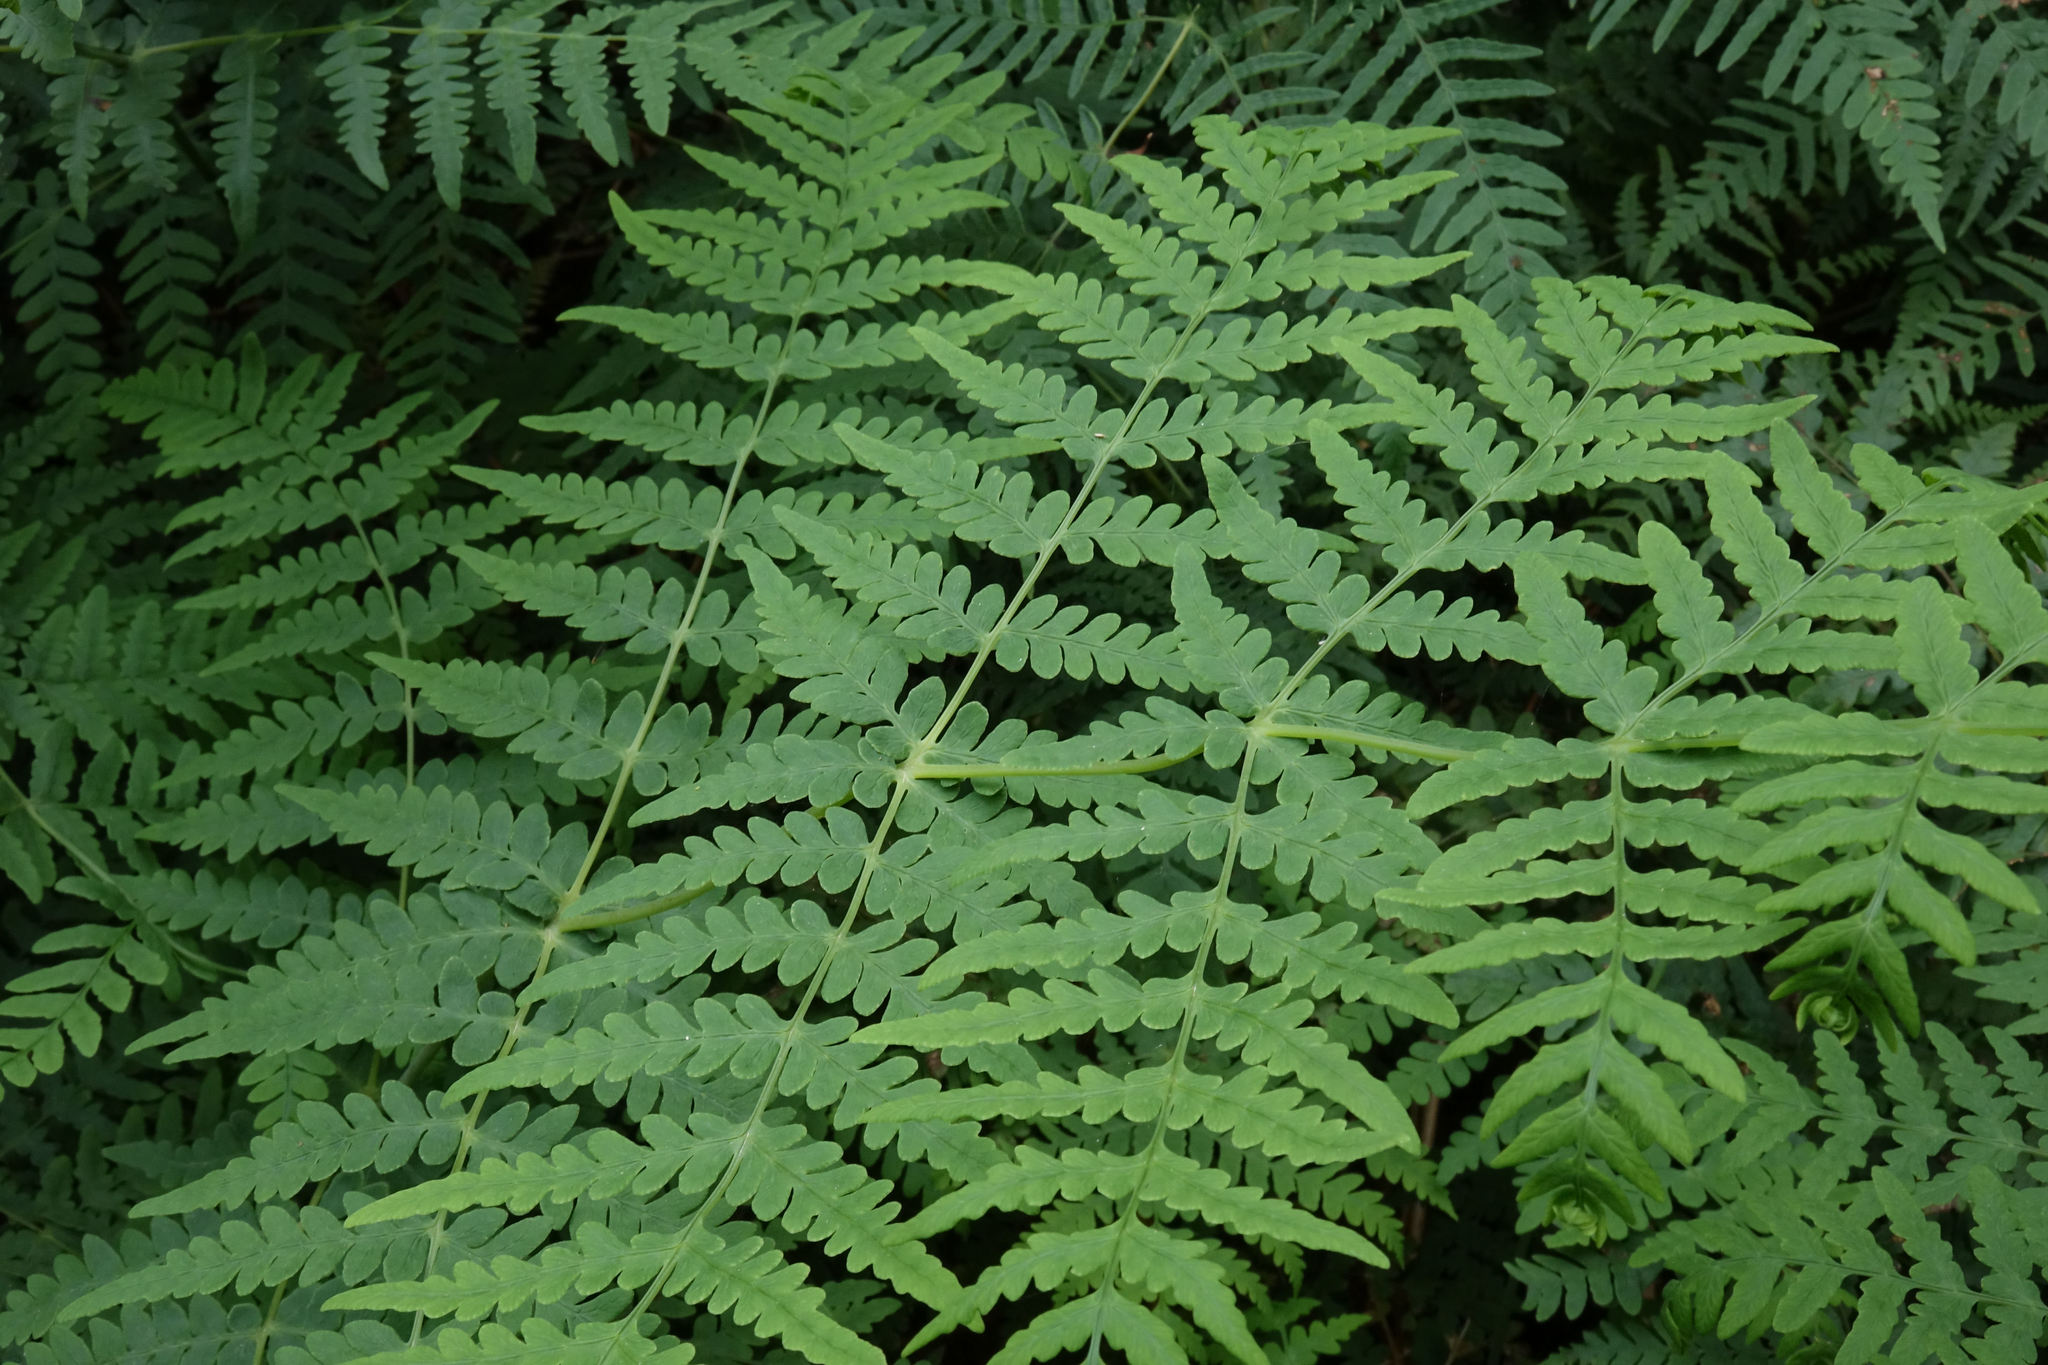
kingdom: Plantae
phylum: Tracheophyta
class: Polypodiopsida
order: Polypodiales
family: Dennstaedtiaceae
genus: Histiopteris
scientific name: Histiopteris incisa
